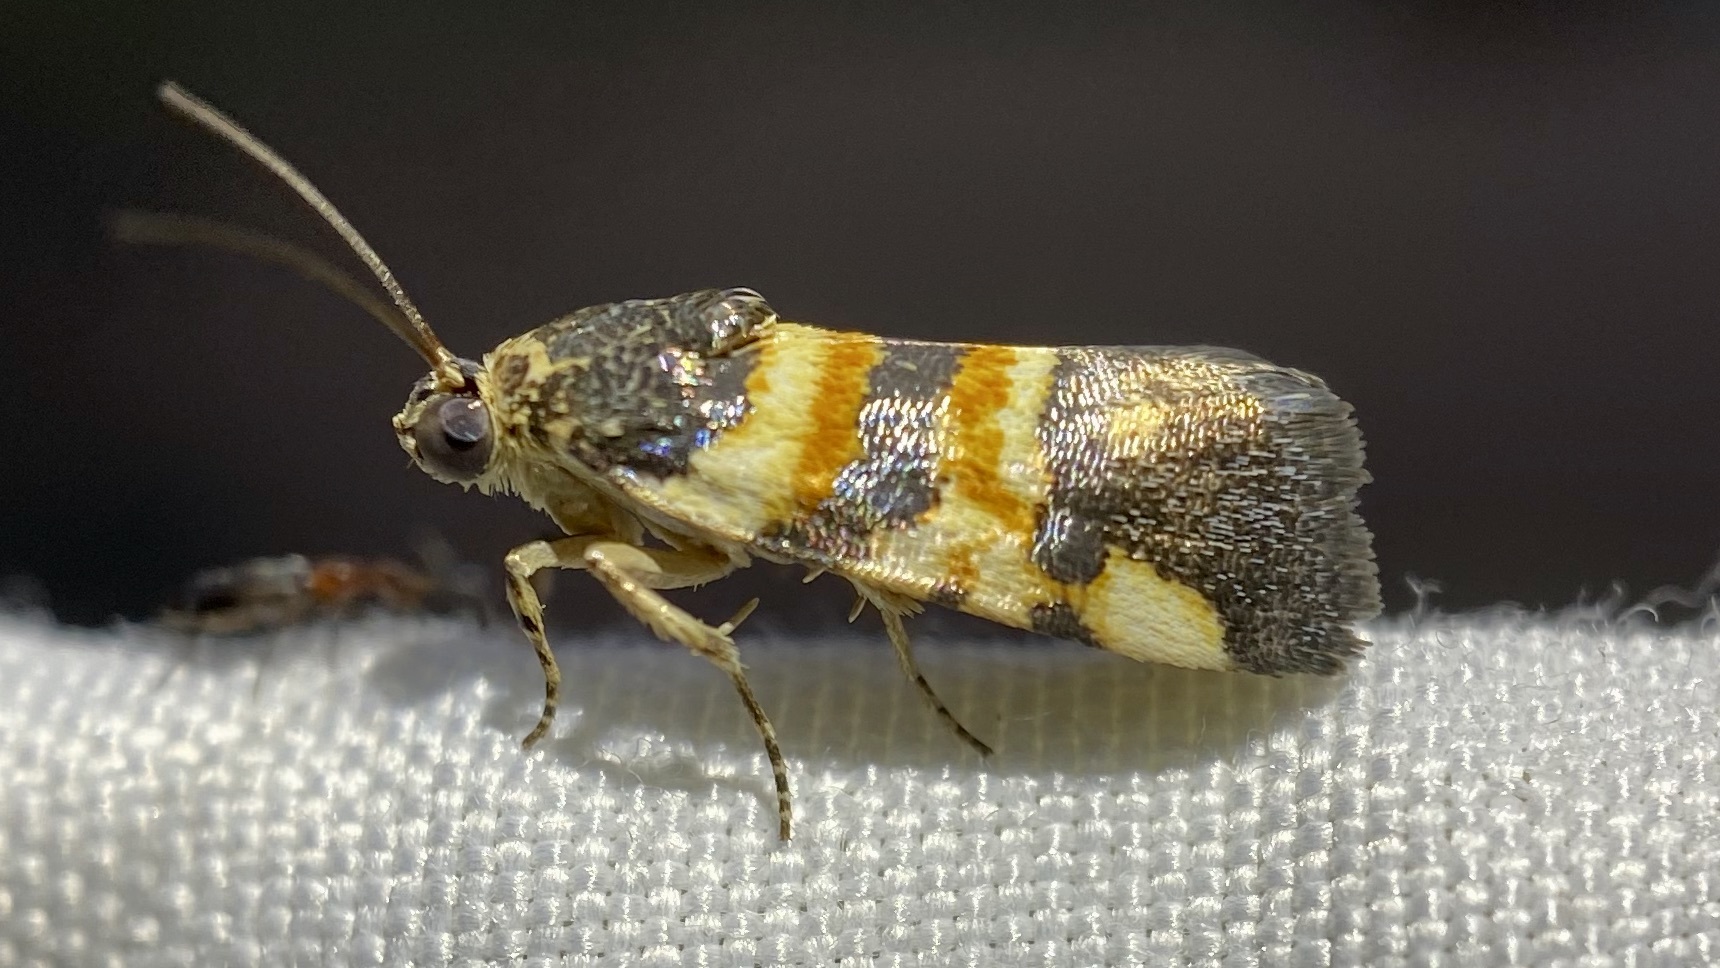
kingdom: Animalia
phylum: Arthropoda
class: Insecta
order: Lepidoptera
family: Noctuidae
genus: Spragueia
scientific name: Spragueia funeralis
